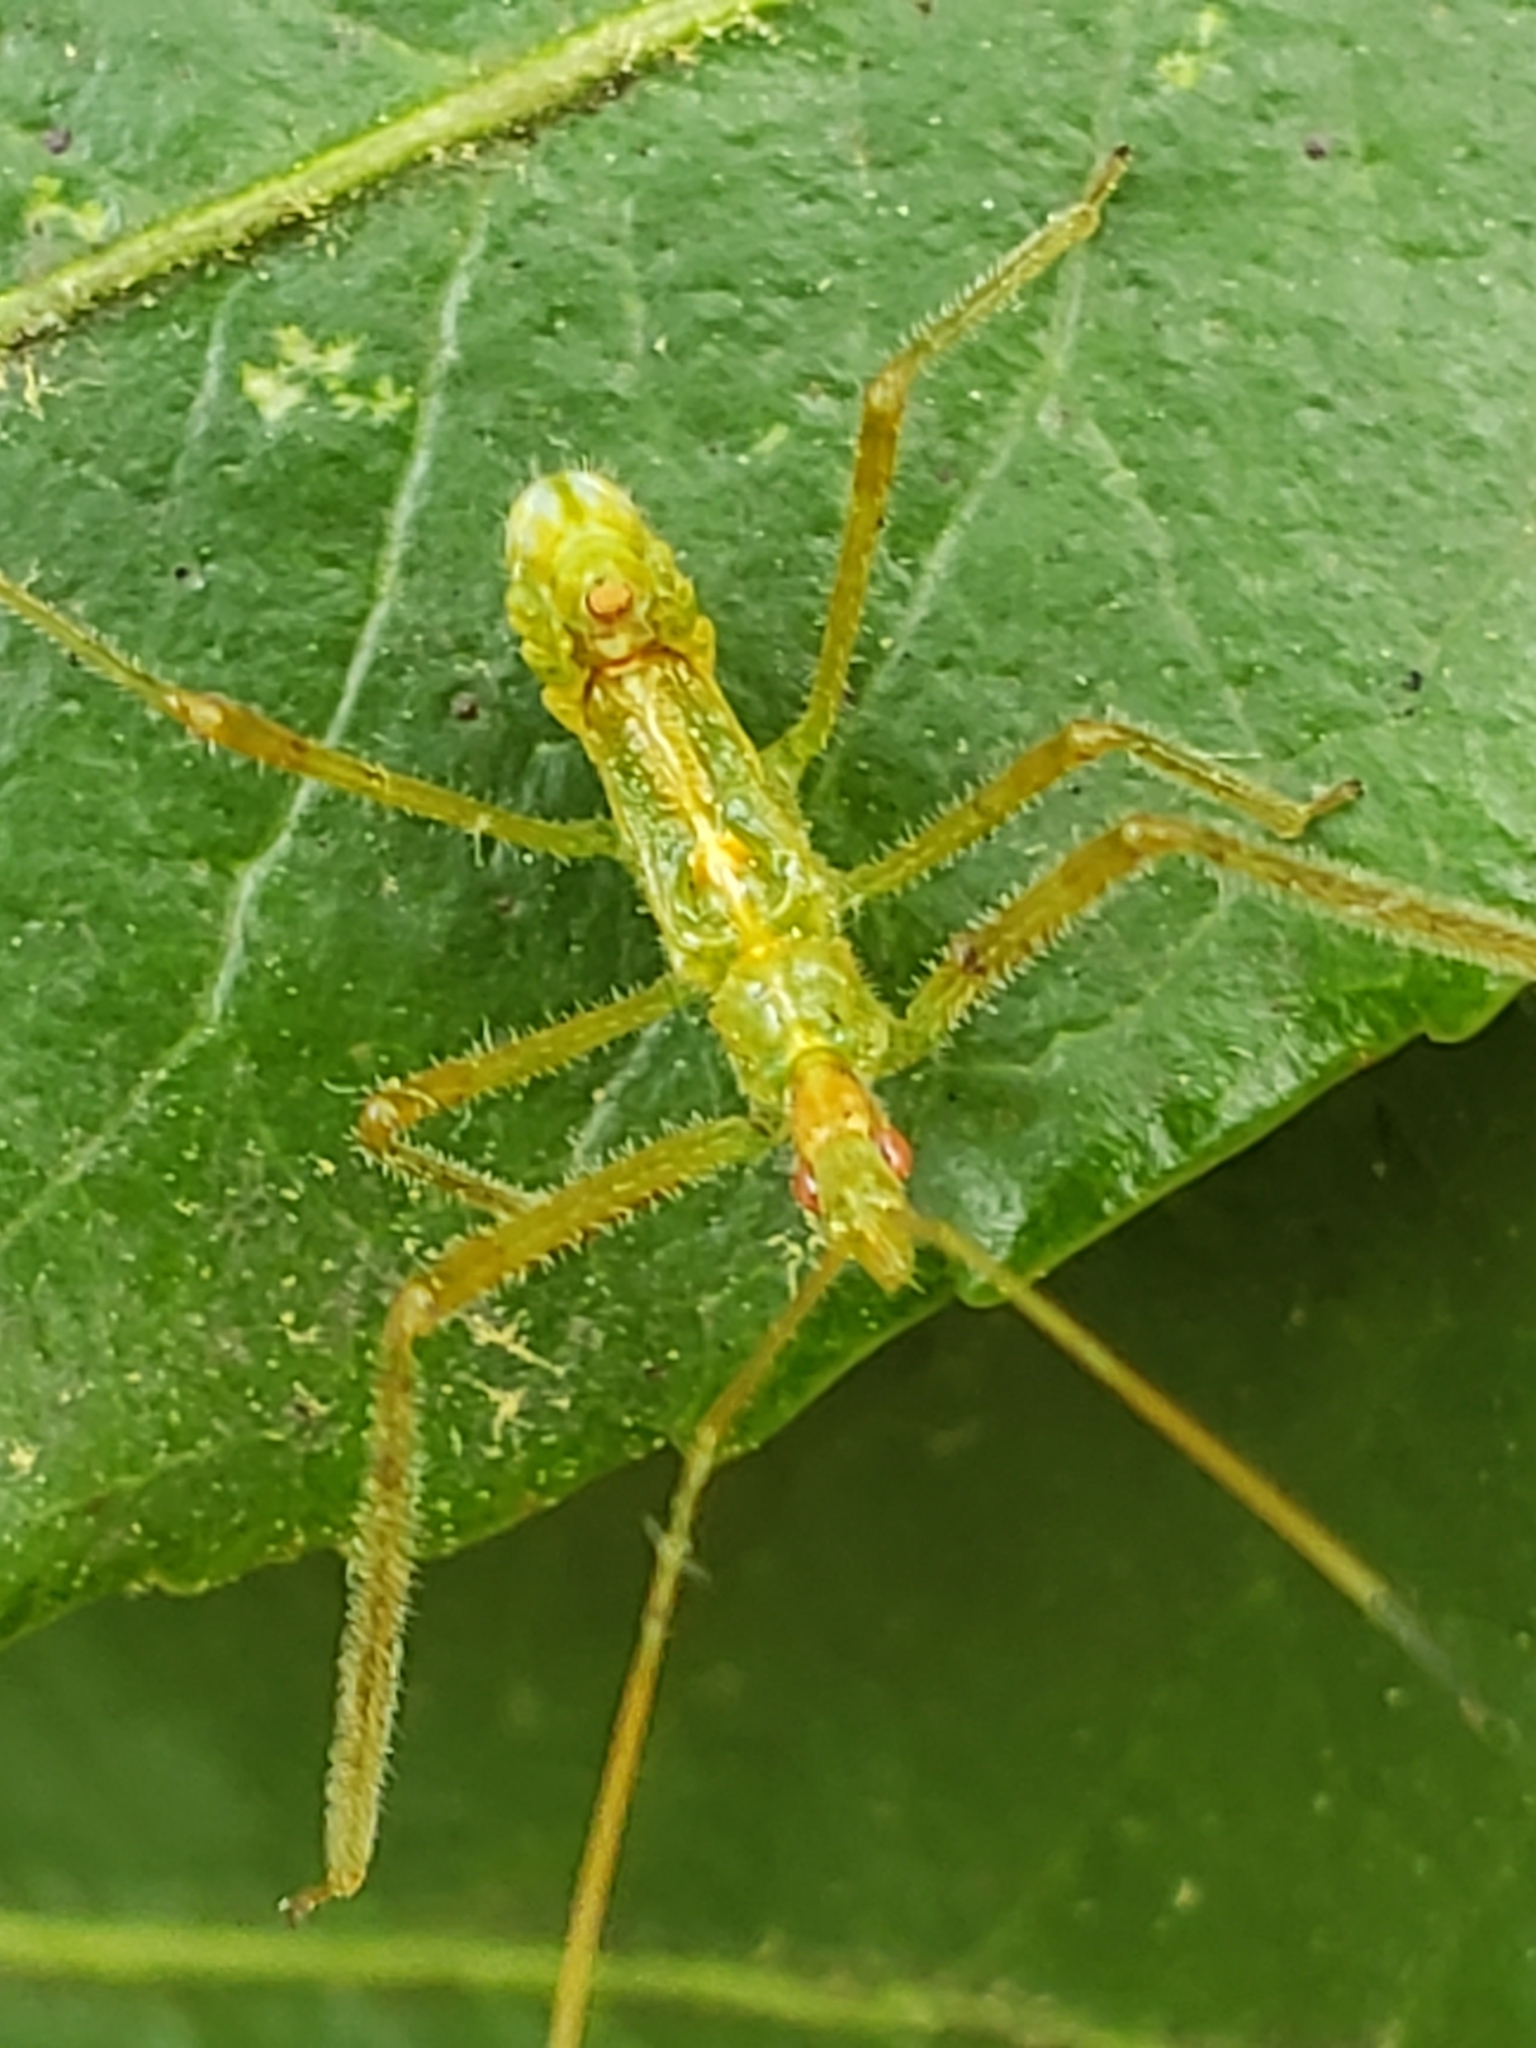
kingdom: Animalia
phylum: Arthropoda
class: Insecta
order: Hemiptera
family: Reduviidae
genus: Zelus
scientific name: Zelus luridus
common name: Pale green assassin bug
